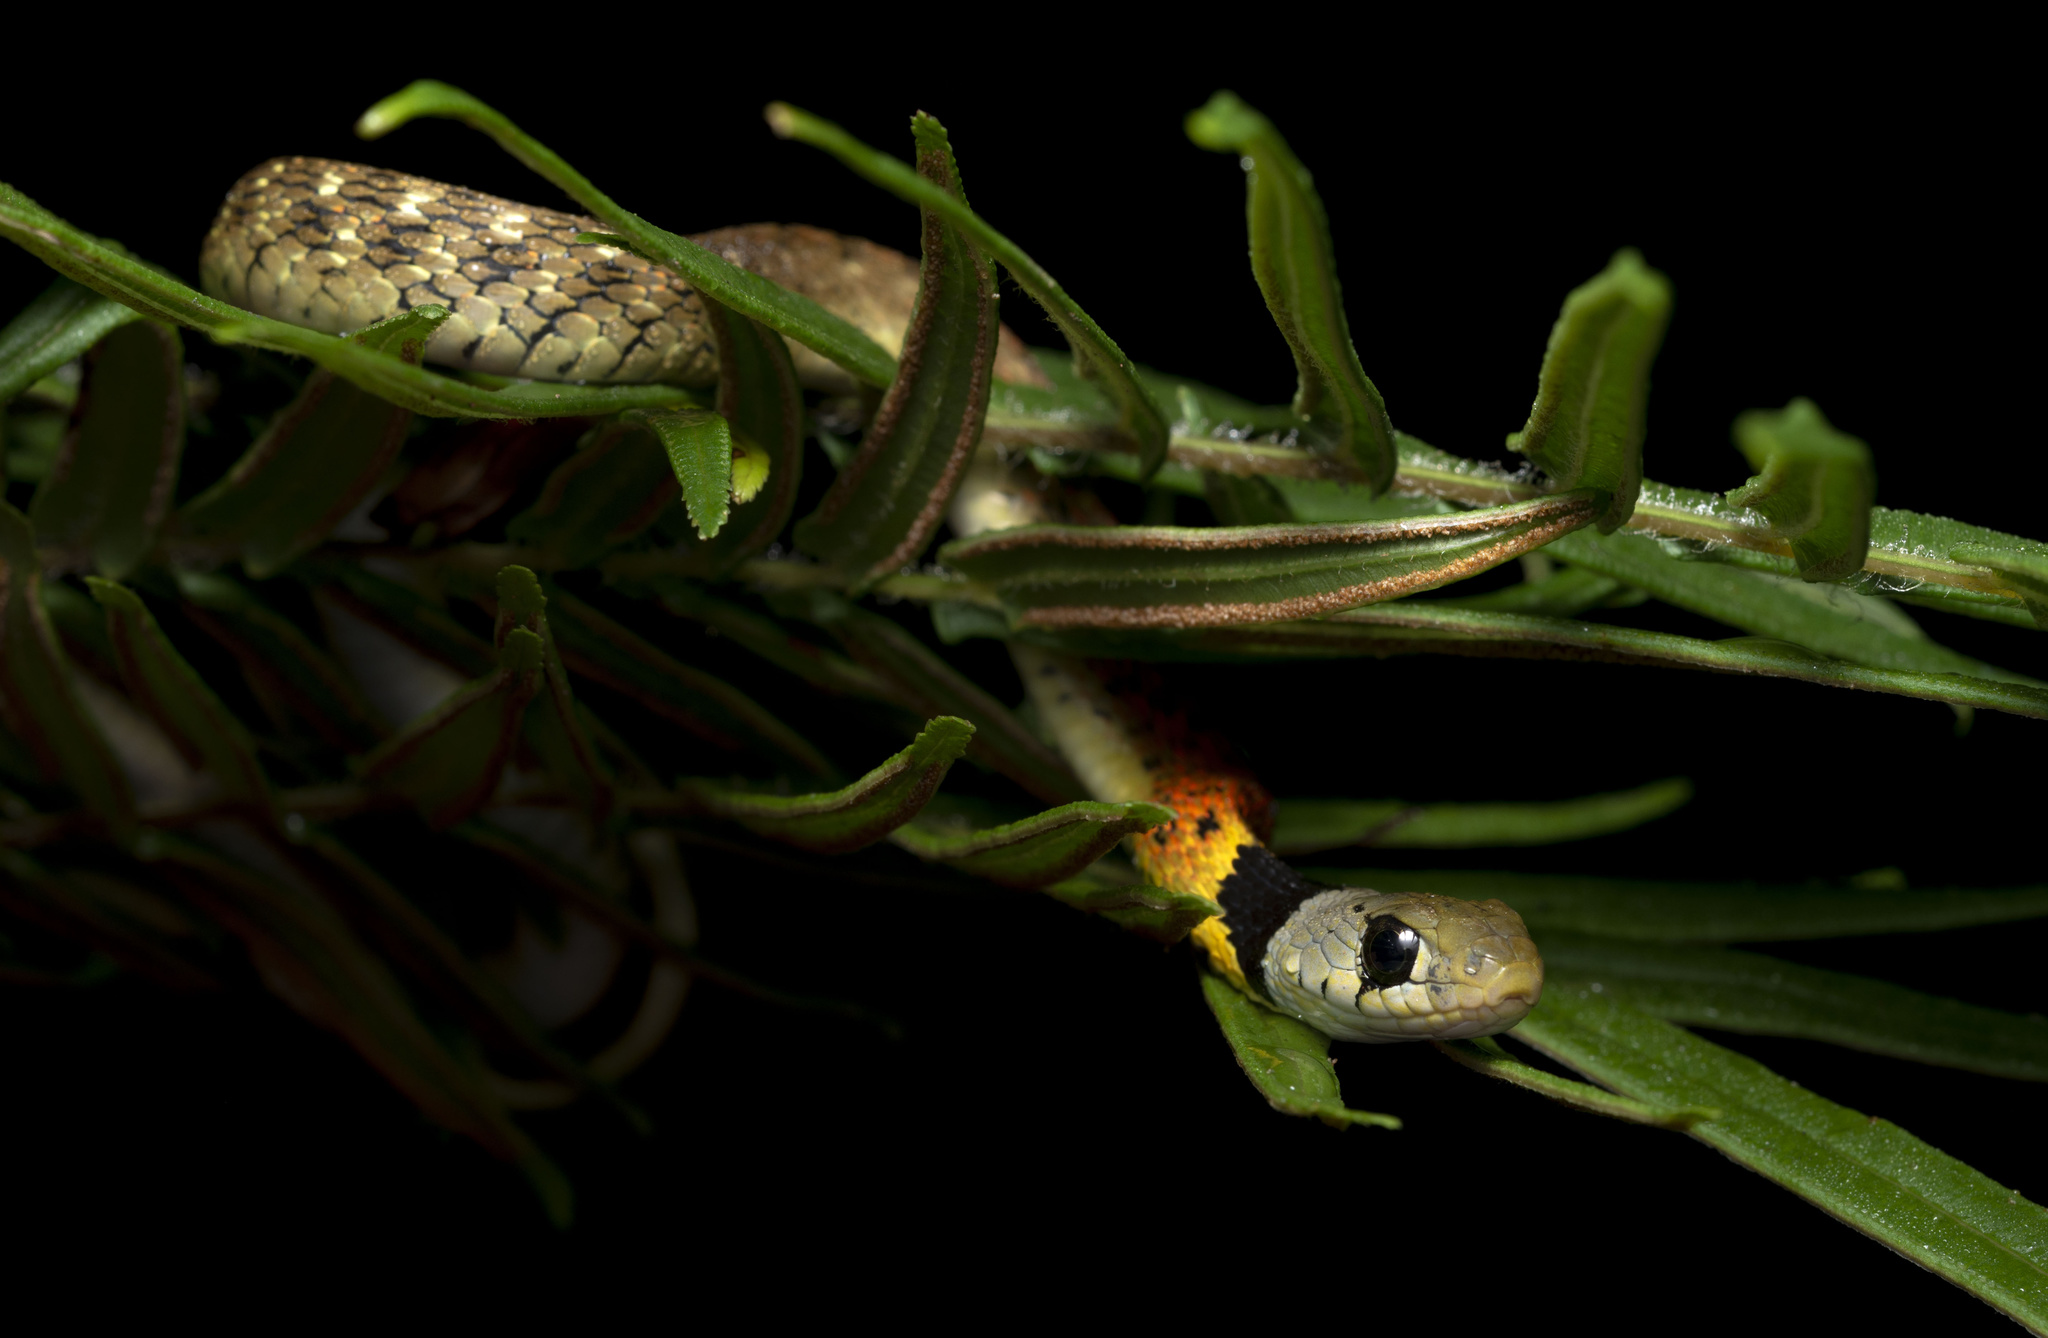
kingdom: Animalia
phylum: Chordata
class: Squamata
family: Colubridae
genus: Rhabdophis
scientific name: Rhabdophis helleri
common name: Heller’s red-necked keelback
